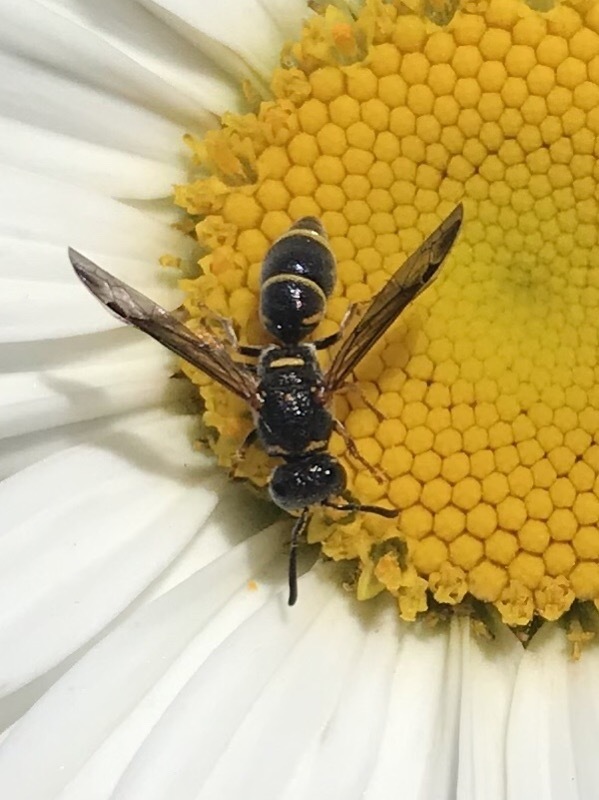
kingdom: Animalia
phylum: Arthropoda
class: Insecta
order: Hymenoptera
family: Eumenidae
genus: Parancistrocerus
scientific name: Parancistrocerus fulvipes
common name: Potter wasp
